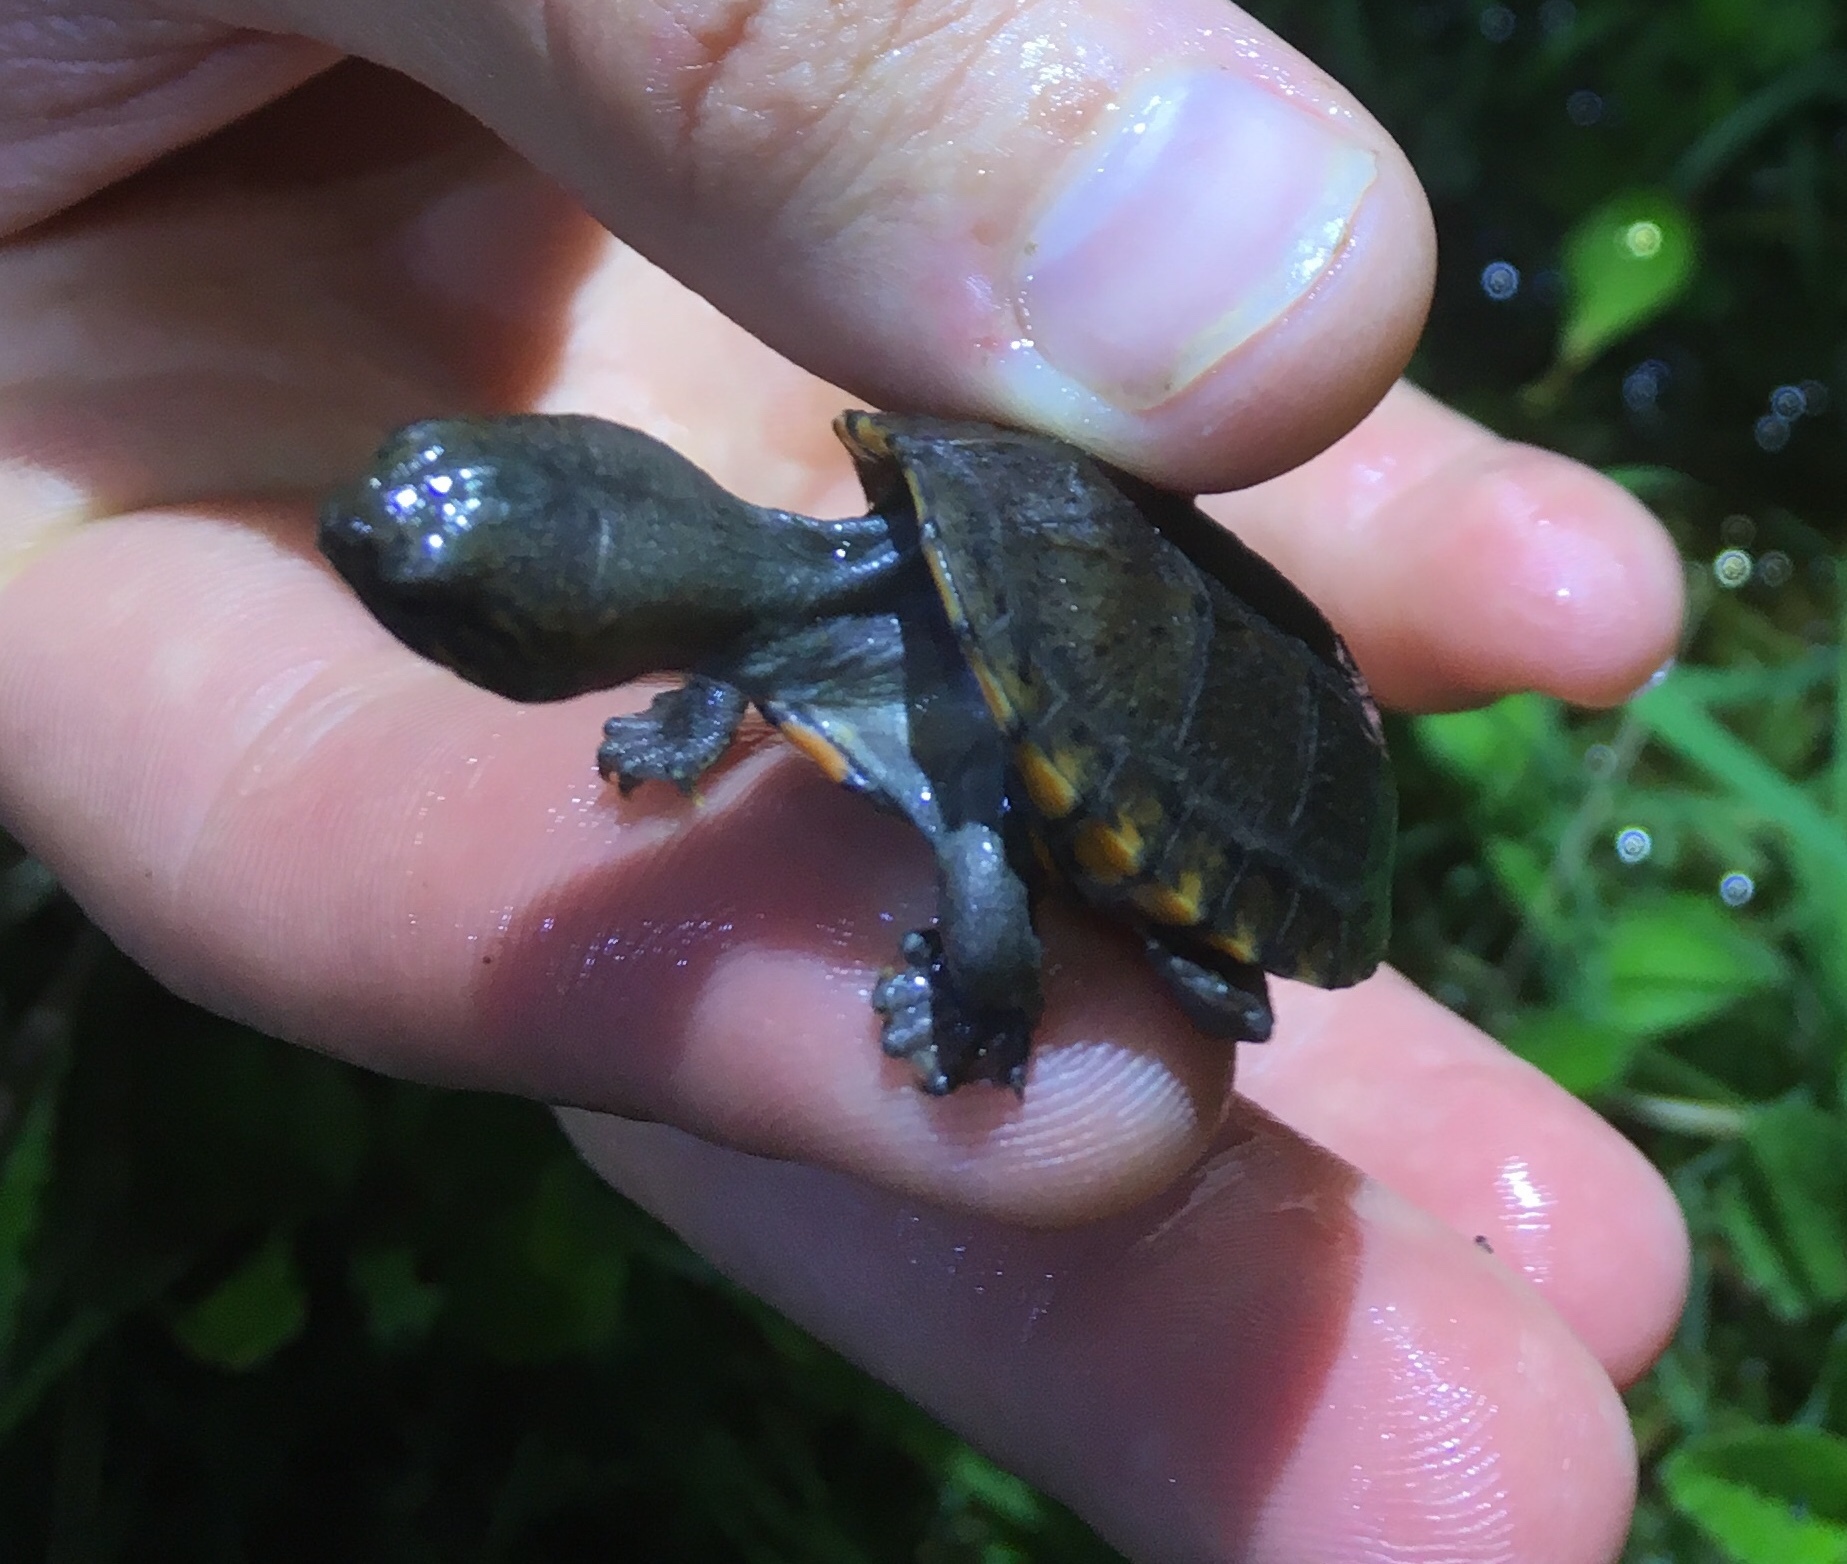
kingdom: Animalia
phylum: Chordata
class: Testudines
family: Kinosternidae
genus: Kinosternon
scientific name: Kinosternon scorpioides
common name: Scorpion mud turtle
